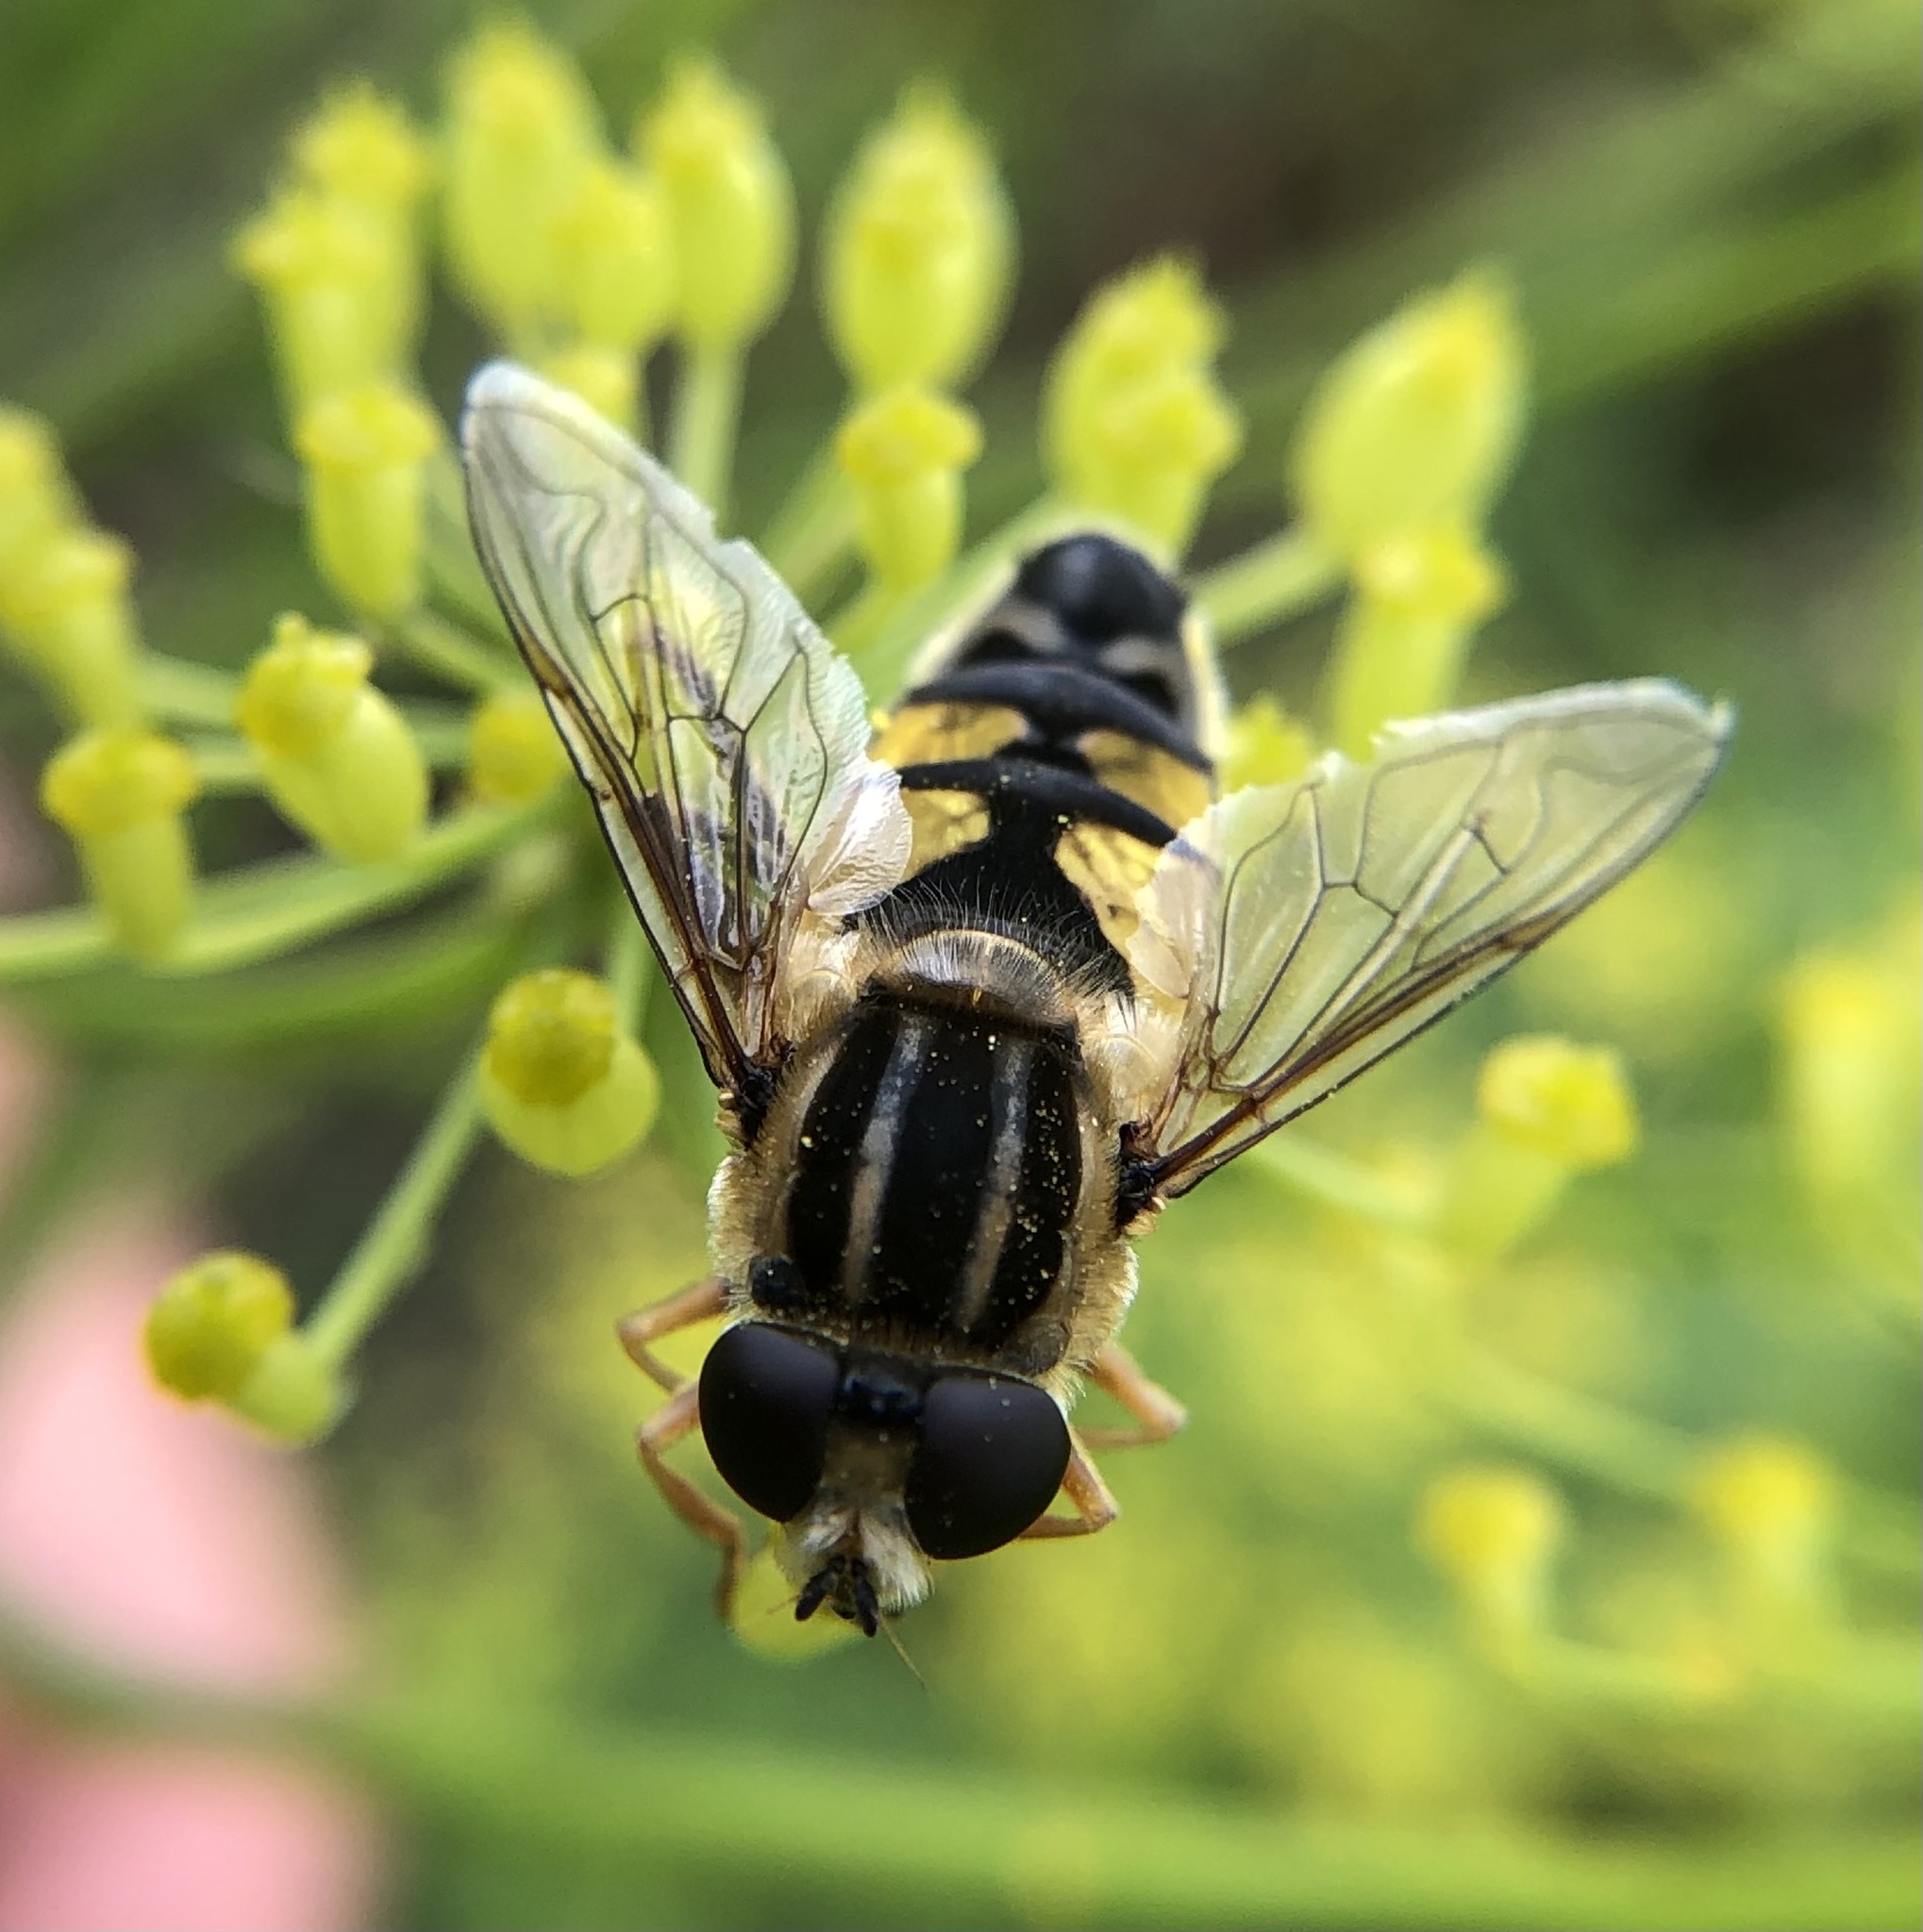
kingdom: Animalia
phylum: Arthropoda
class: Insecta
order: Diptera
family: Syrphidae
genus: Helophilus
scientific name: Helophilus trivittatus
